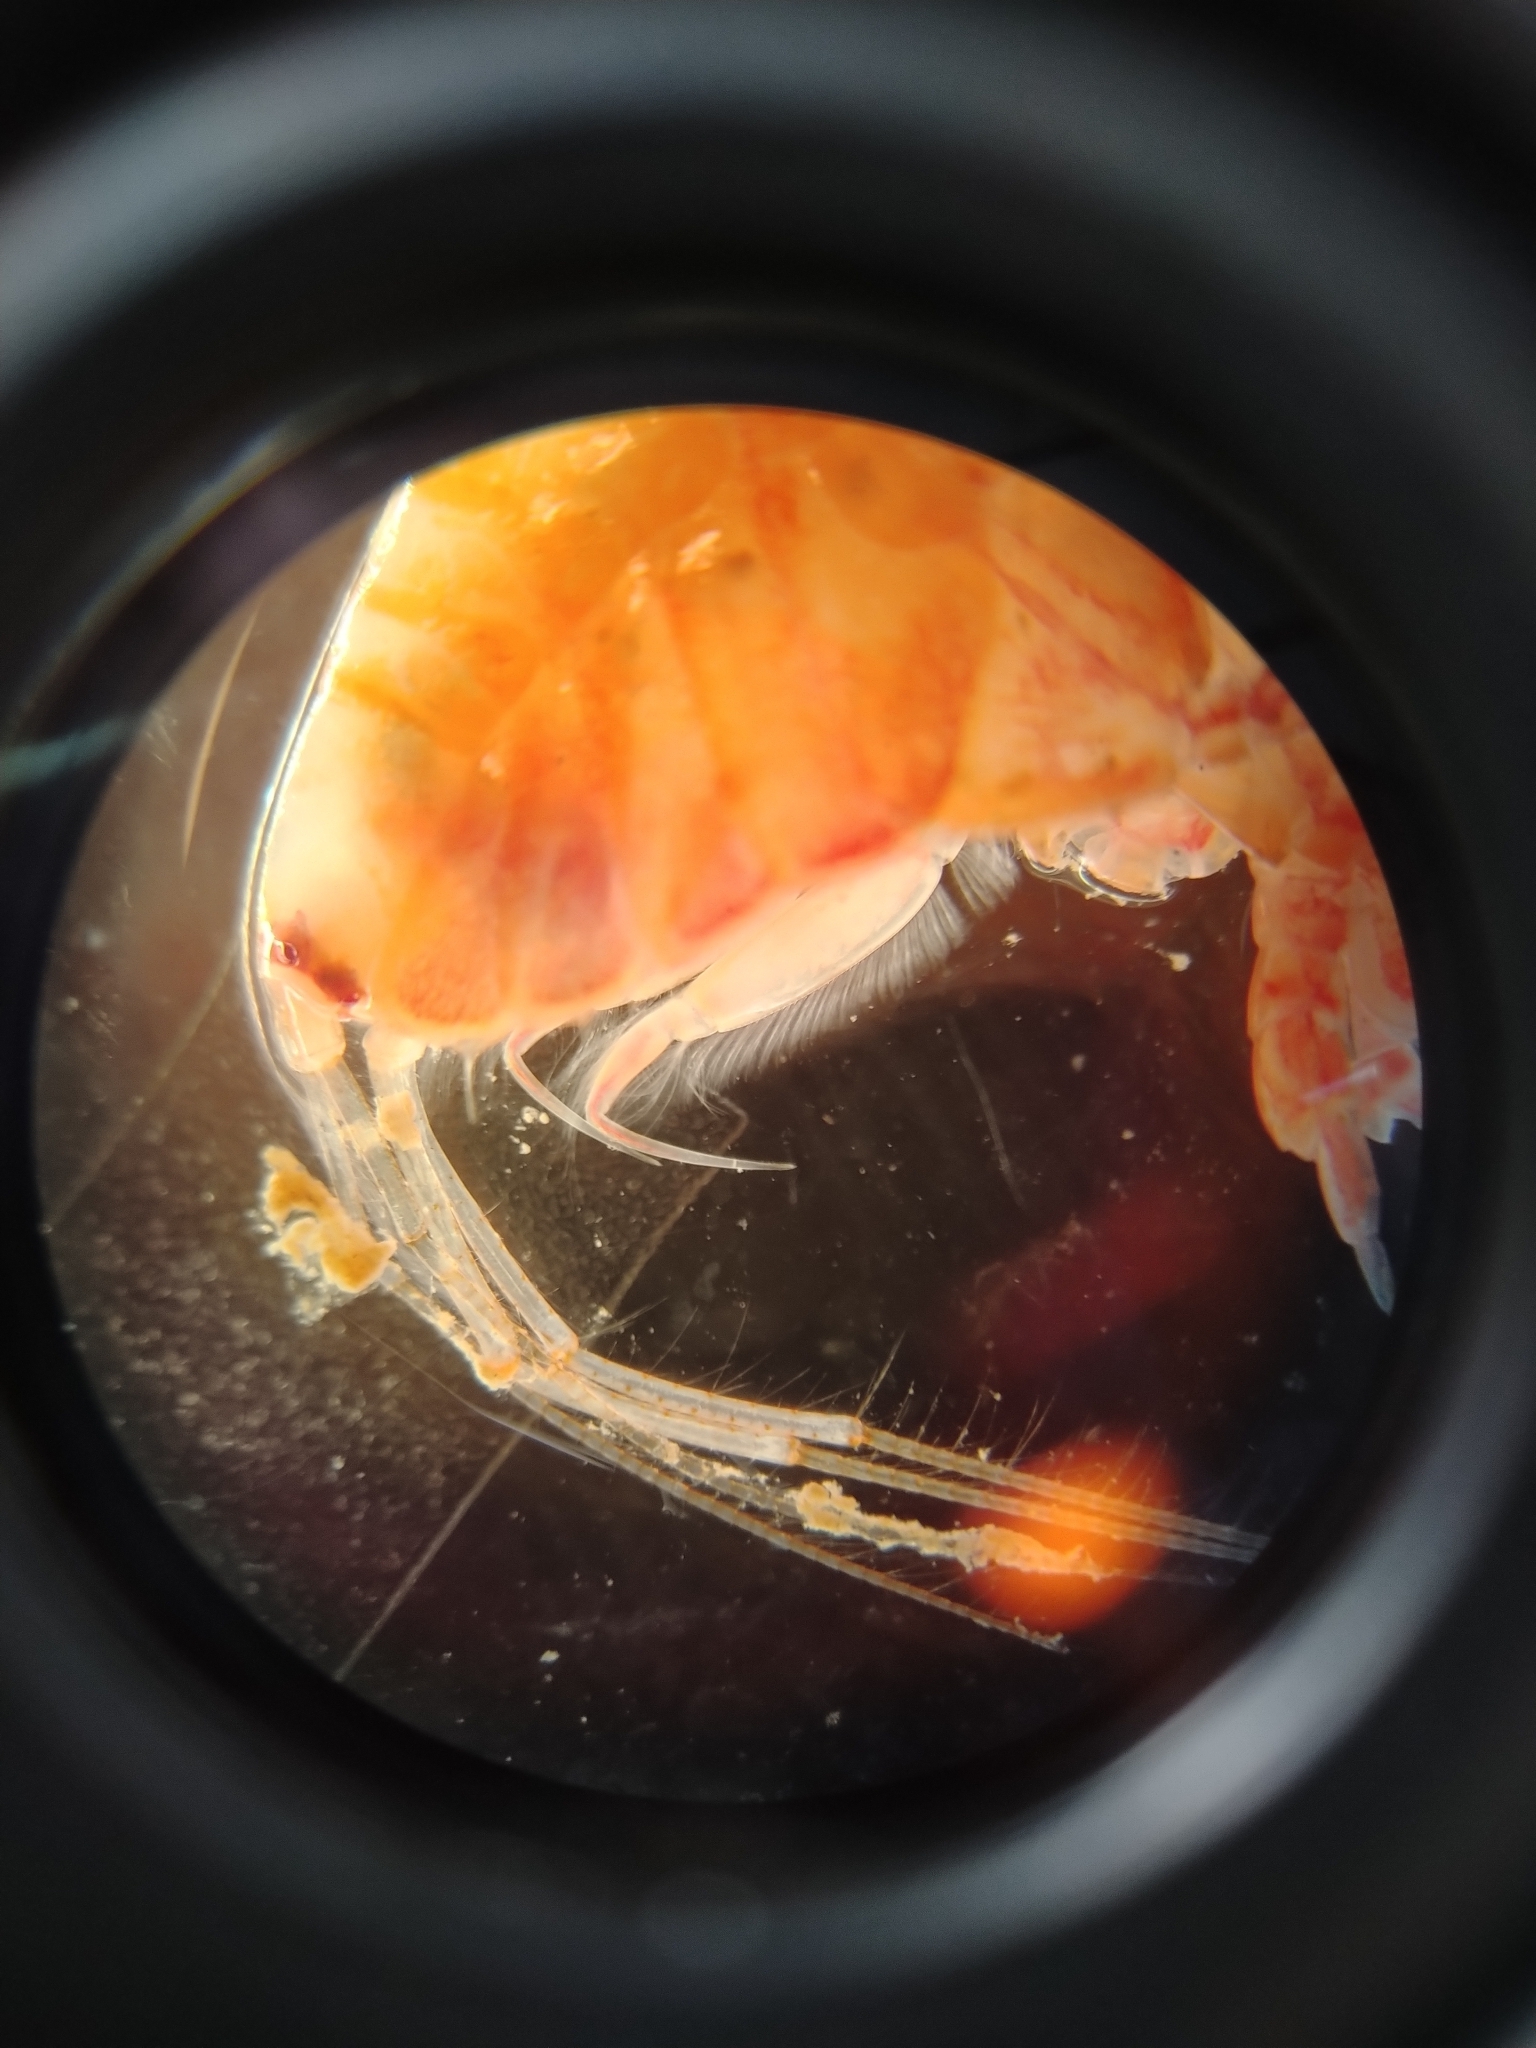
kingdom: Animalia
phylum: Arthropoda
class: Malacostraca
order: Amphipoda
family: Ampeliscidae
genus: Ampelisca
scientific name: Ampelisca eschrichtii
